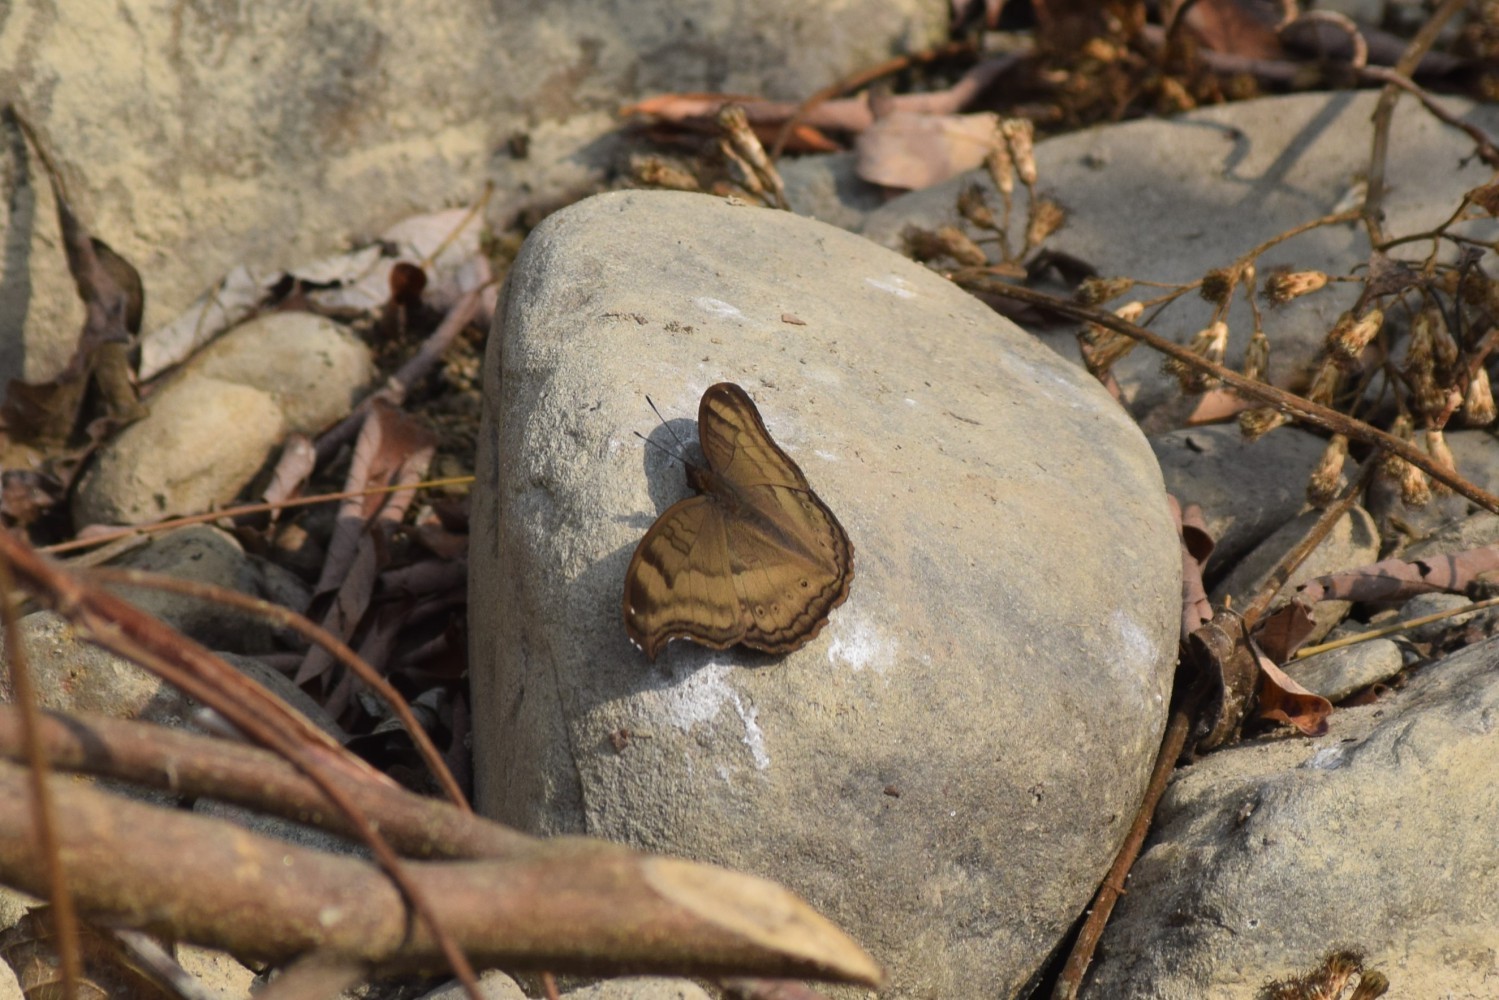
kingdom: Animalia
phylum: Arthropoda
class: Insecta
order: Lepidoptera
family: Nymphalidae
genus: Junonia
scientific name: Junonia iphita
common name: Chocolate pansy
